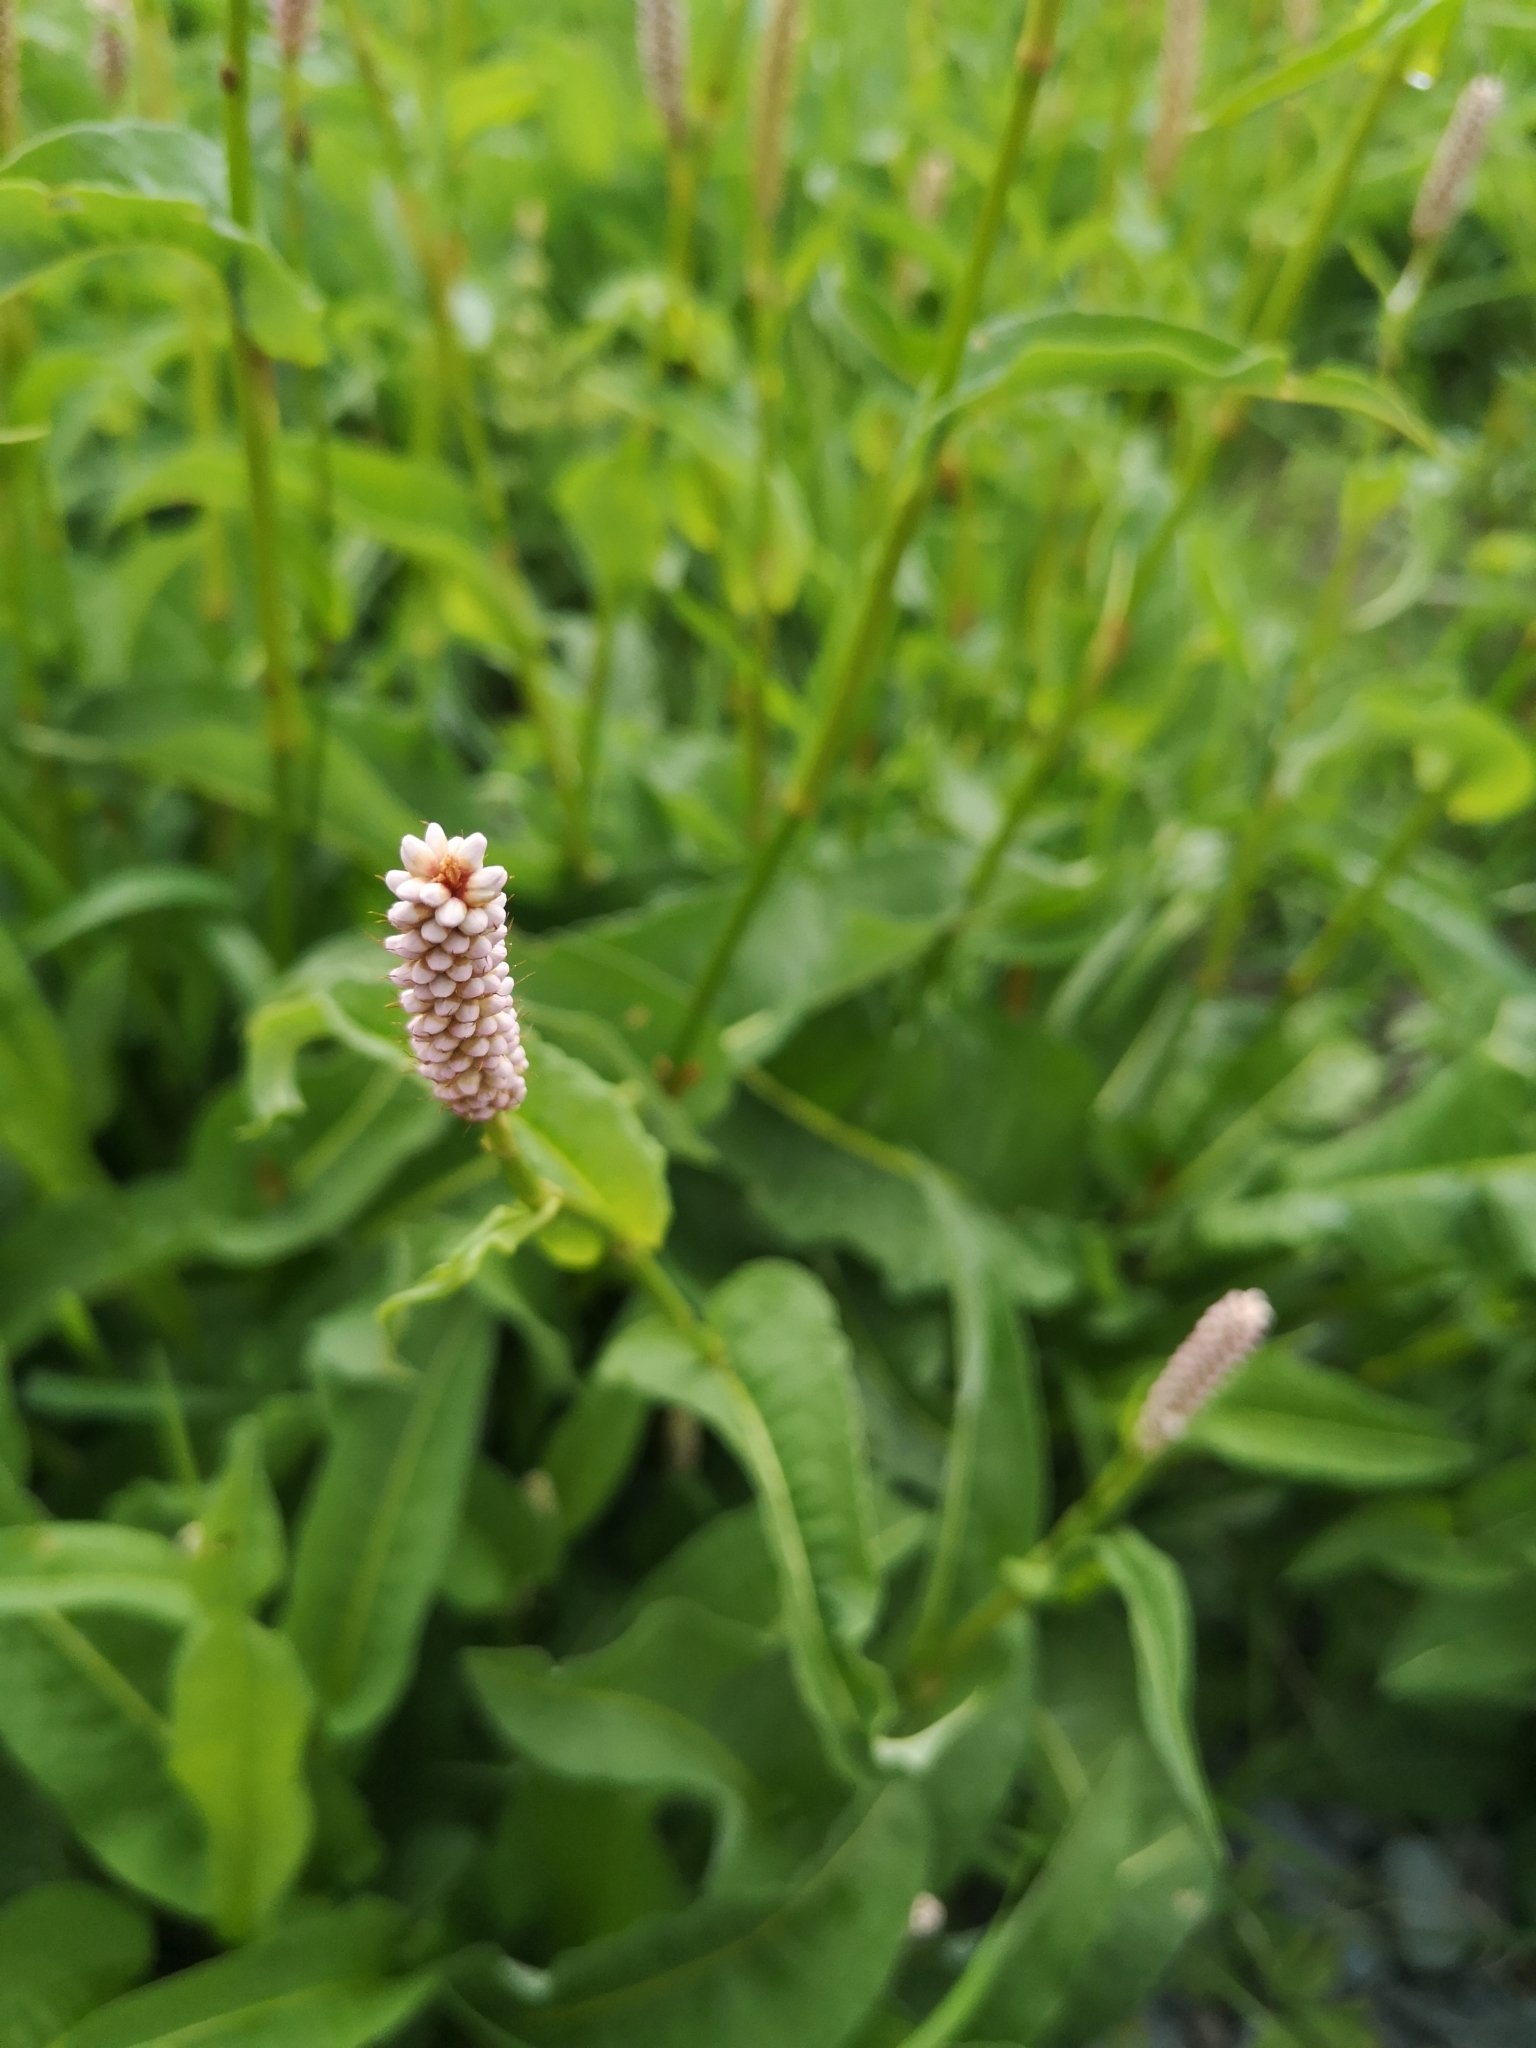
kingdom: Plantae
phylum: Tracheophyta
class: Magnoliopsida
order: Caryophyllales
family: Polygonaceae
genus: Bistorta
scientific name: Bistorta officinalis
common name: Common bistort
